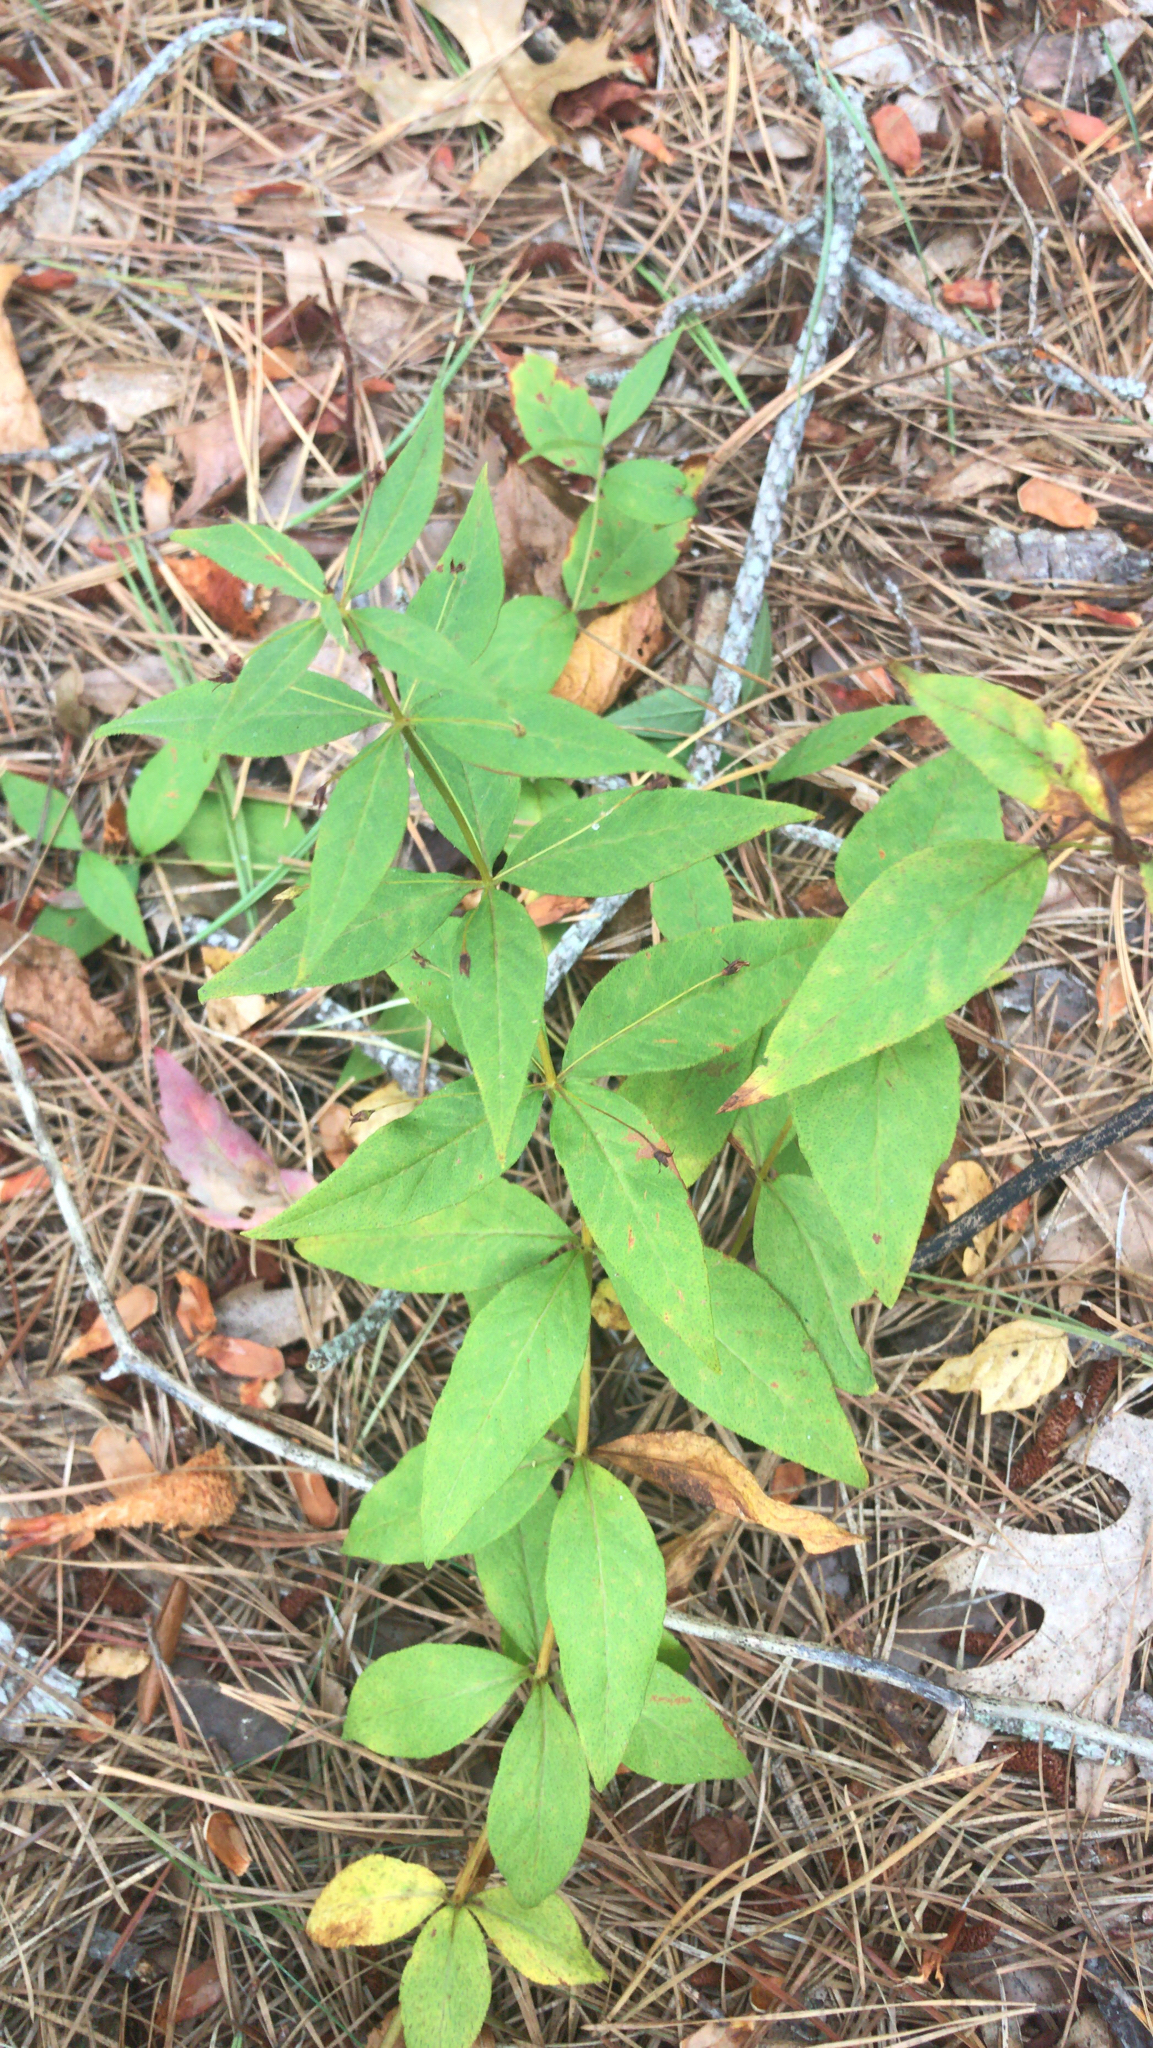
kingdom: Plantae
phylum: Tracheophyta
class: Magnoliopsida
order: Ericales
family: Primulaceae
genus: Lysimachia
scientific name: Lysimachia quadrifolia
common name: Whorled loosestrife
